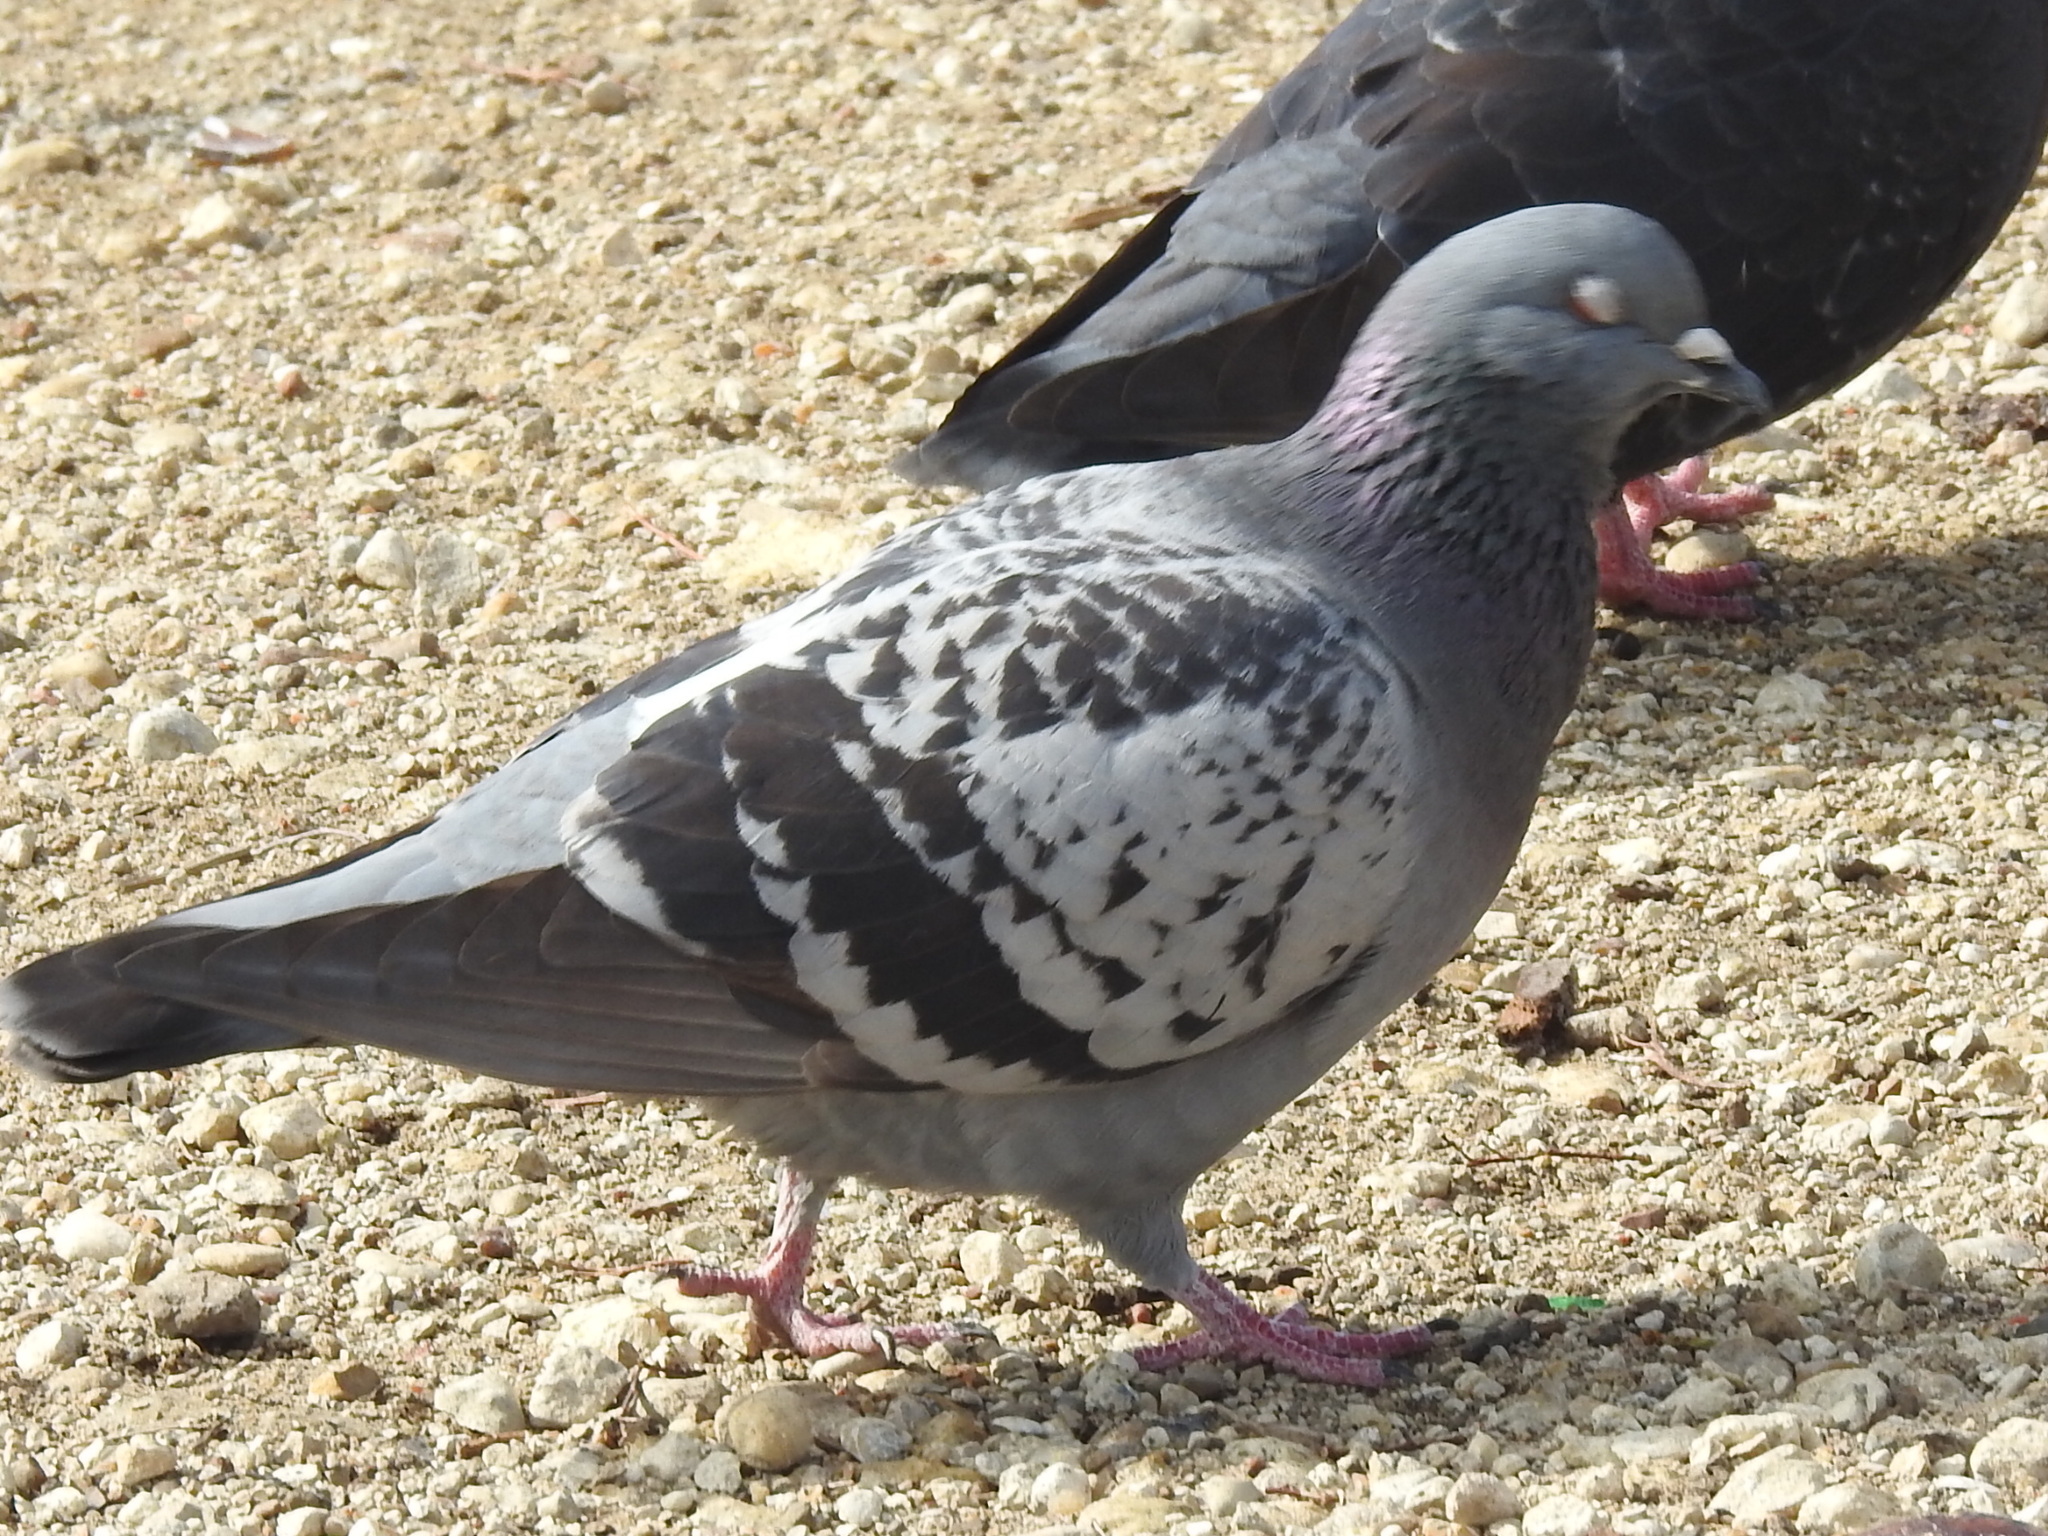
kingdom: Animalia
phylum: Chordata
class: Aves
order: Columbiformes
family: Columbidae
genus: Columba
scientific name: Columba livia
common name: Rock pigeon
